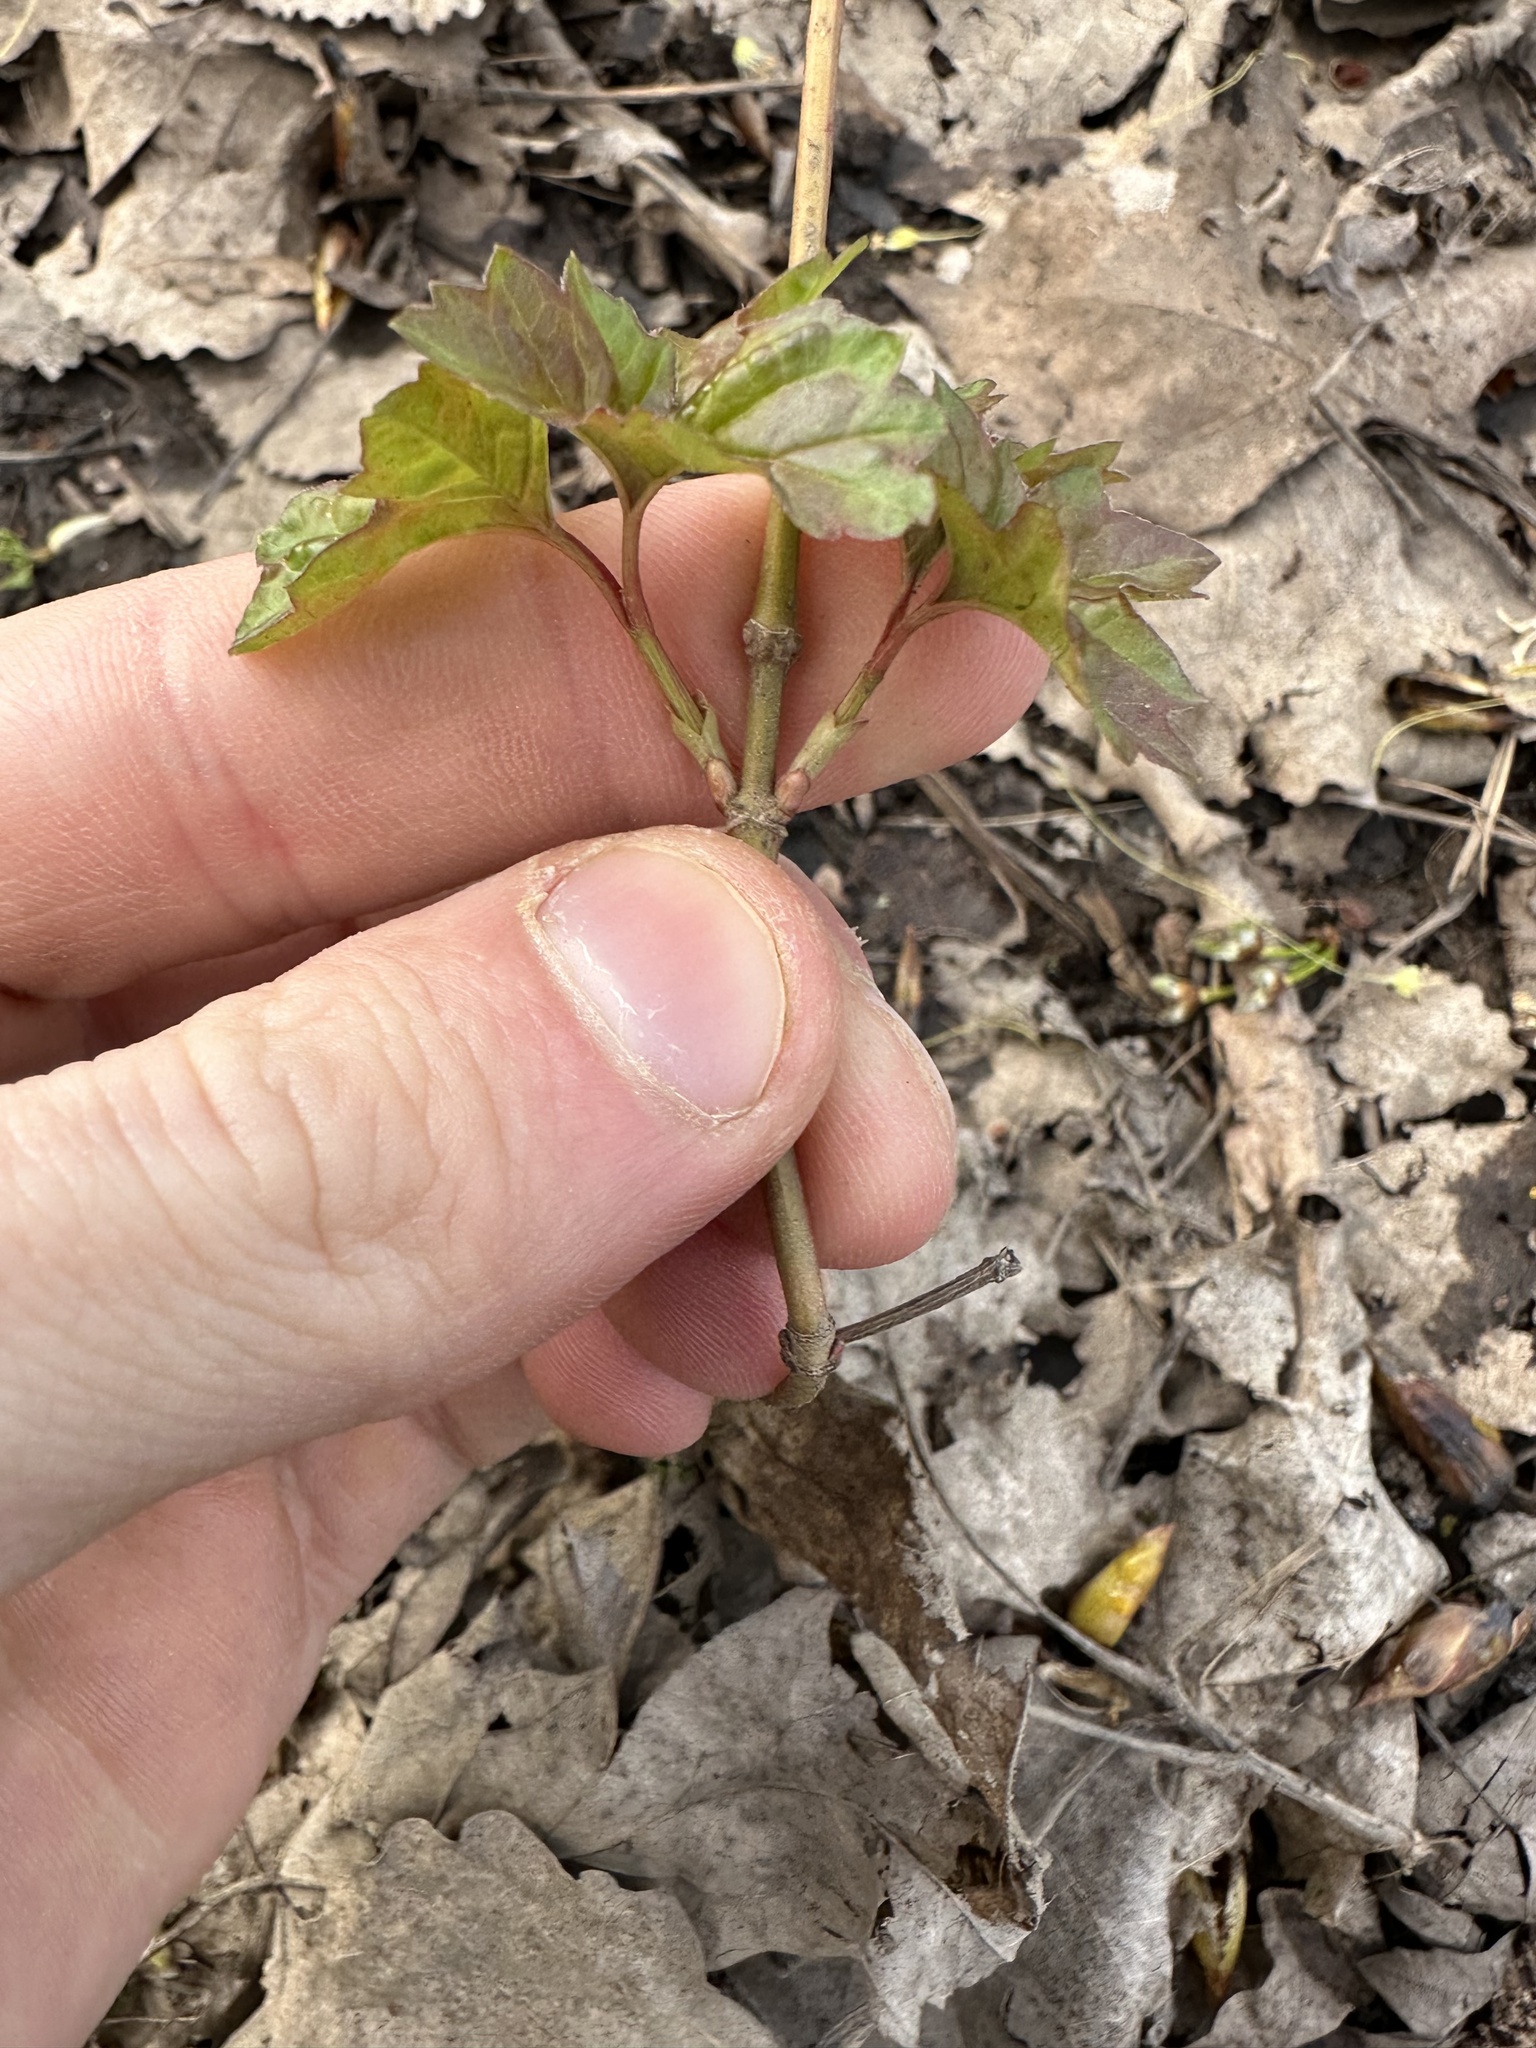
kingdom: Plantae
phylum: Tracheophyta
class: Magnoliopsida
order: Dipsacales
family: Viburnaceae
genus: Viburnum
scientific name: Viburnum acerifolium
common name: Dockmackie
